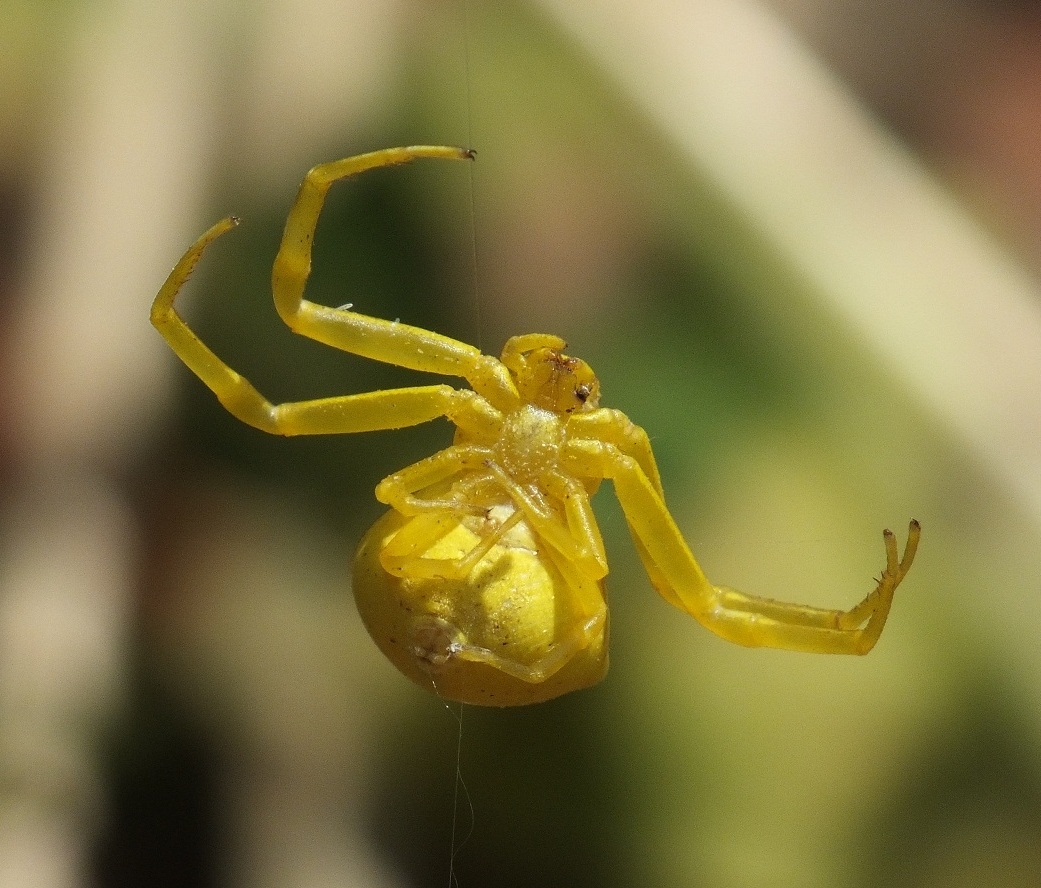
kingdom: Animalia
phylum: Arthropoda
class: Arachnida
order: Araneae
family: Thomisidae
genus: Thomisus
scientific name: Thomisus onustus
